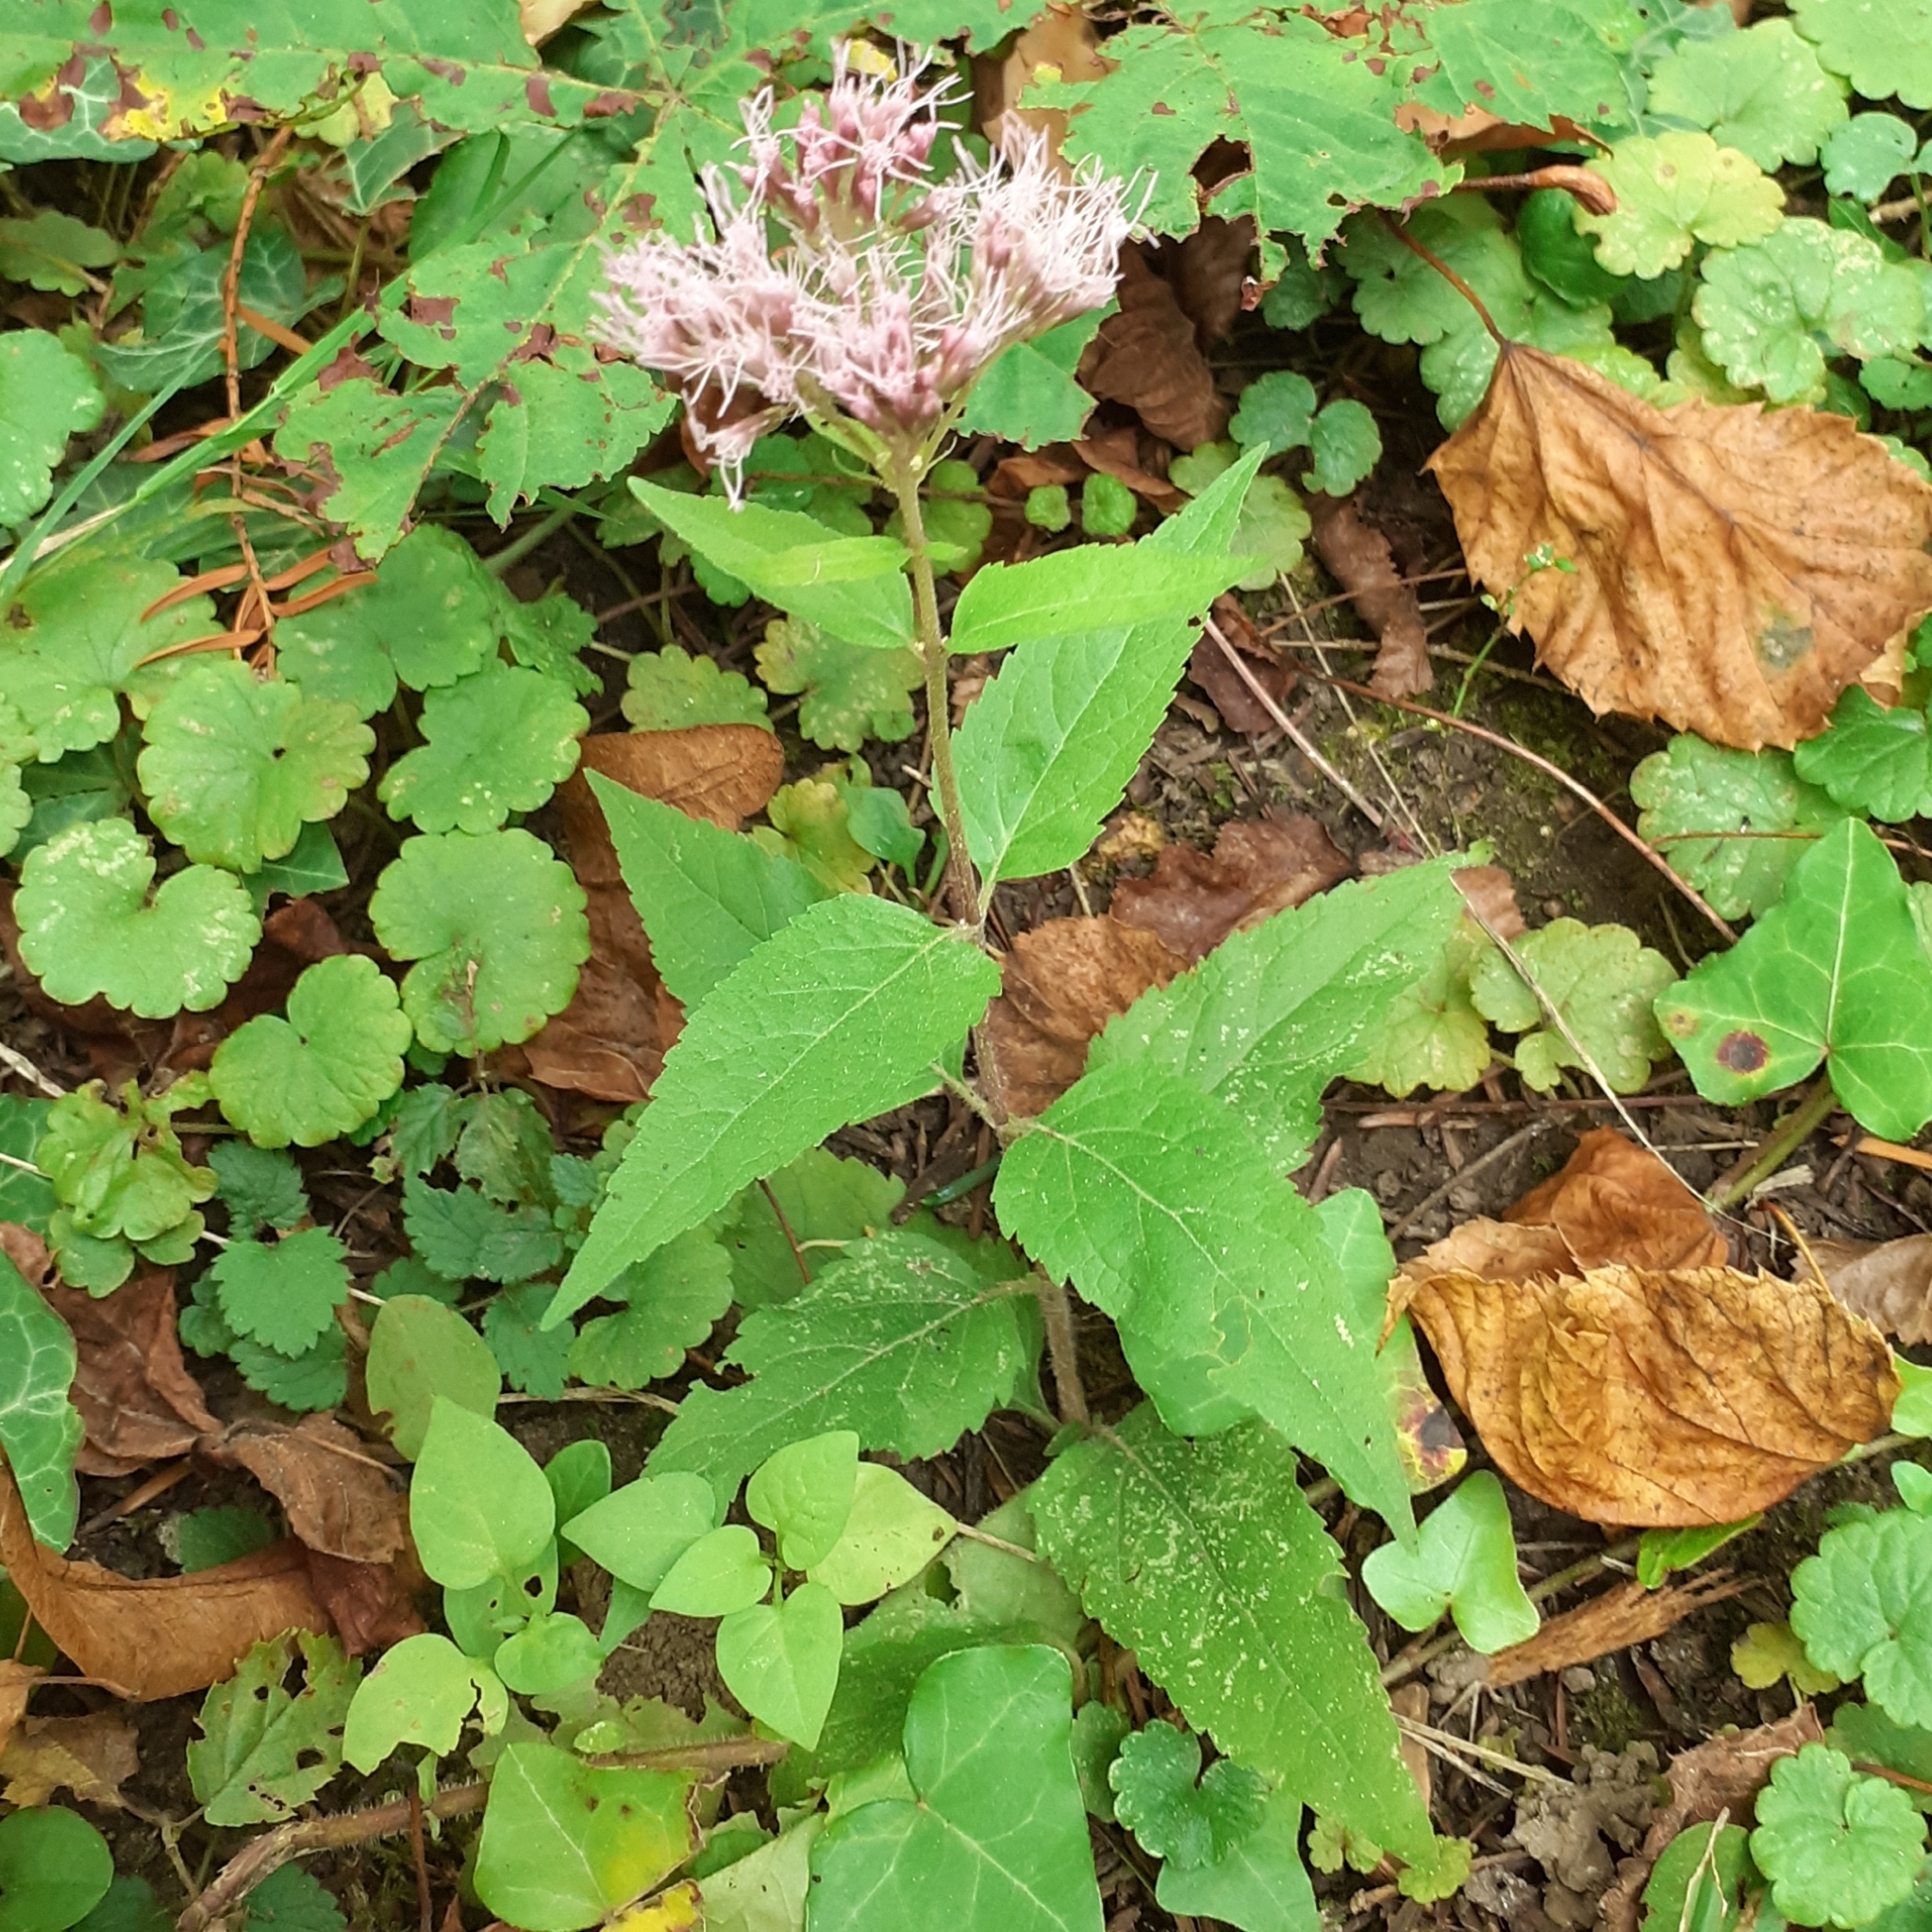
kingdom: Plantae
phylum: Tracheophyta
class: Magnoliopsida
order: Asterales
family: Asteraceae
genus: Eupatorium
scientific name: Eupatorium cannabinum
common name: Hemp-agrimony
